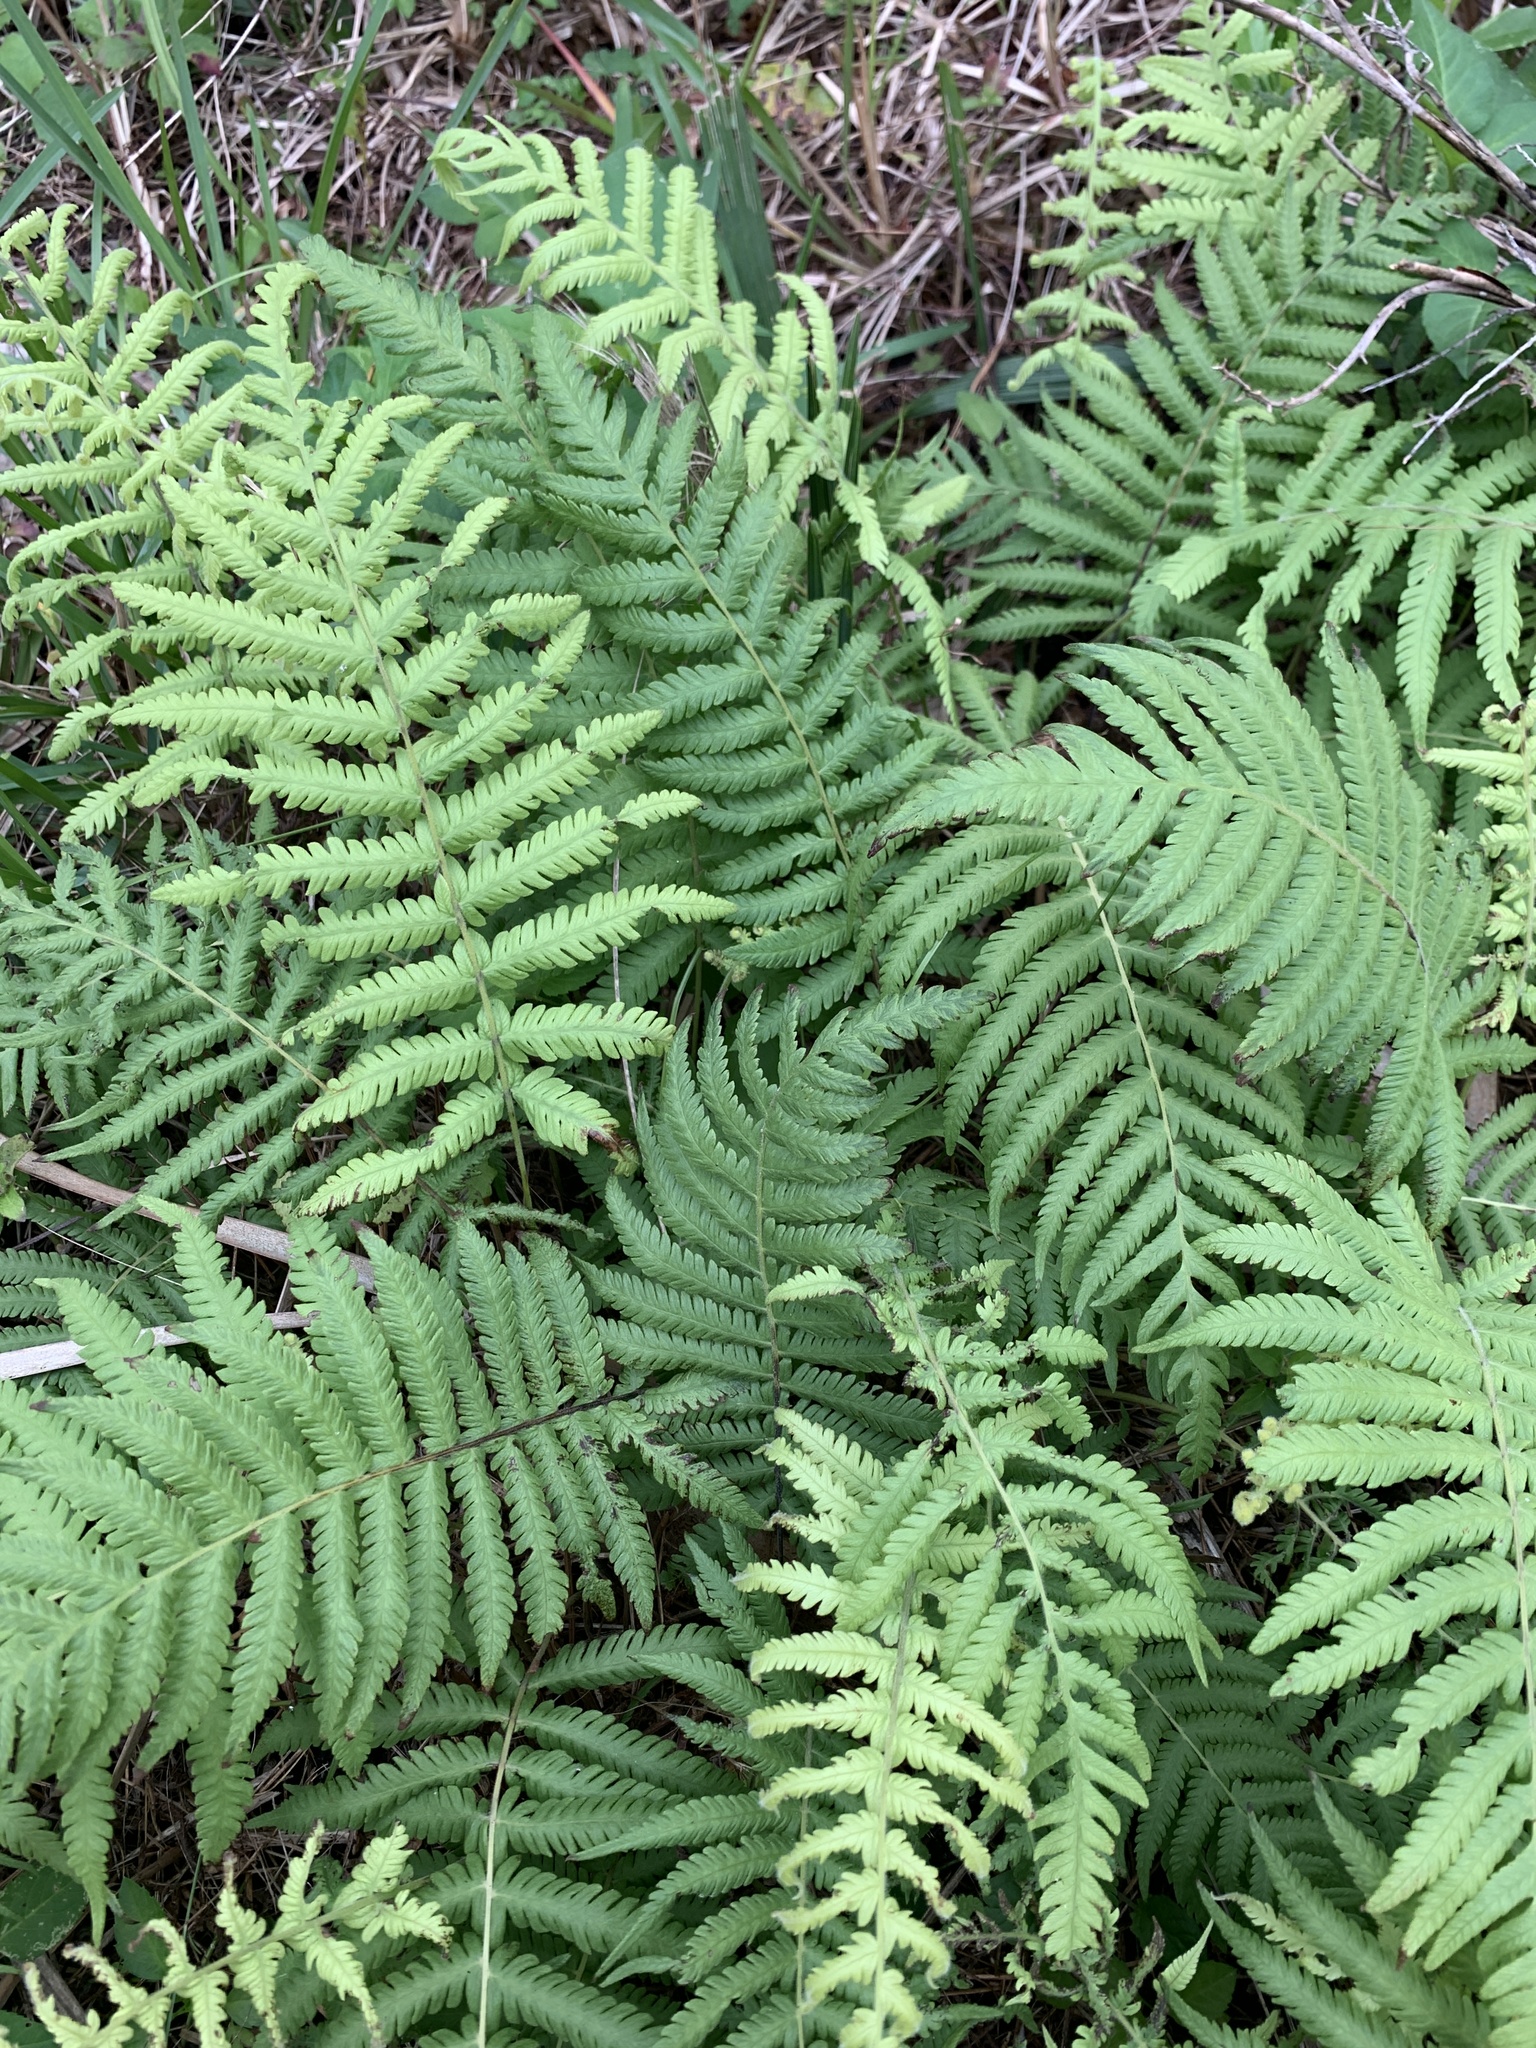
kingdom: Plantae
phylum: Tracheophyta
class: Polypodiopsida
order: Polypodiales
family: Thelypteridaceae
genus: Pelazoneuron
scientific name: Pelazoneuron kunthii
